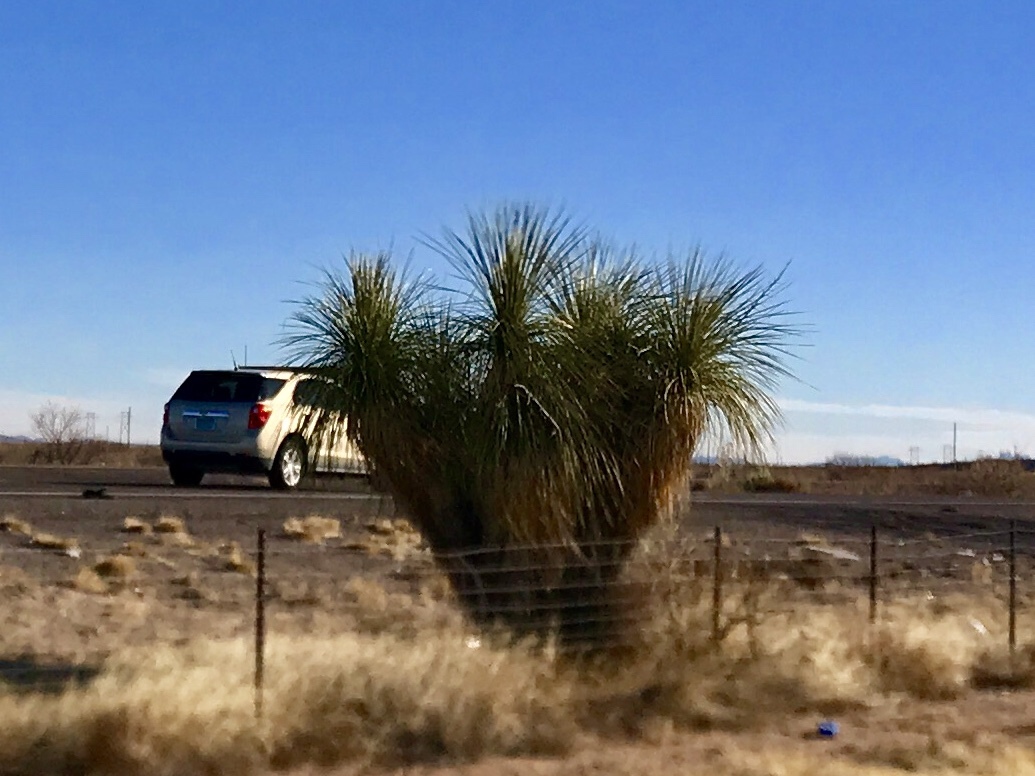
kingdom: Plantae
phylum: Tracheophyta
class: Liliopsida
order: Asparagales
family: Asparagaceae
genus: Yucca
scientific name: Yucca elata
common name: Palmella
